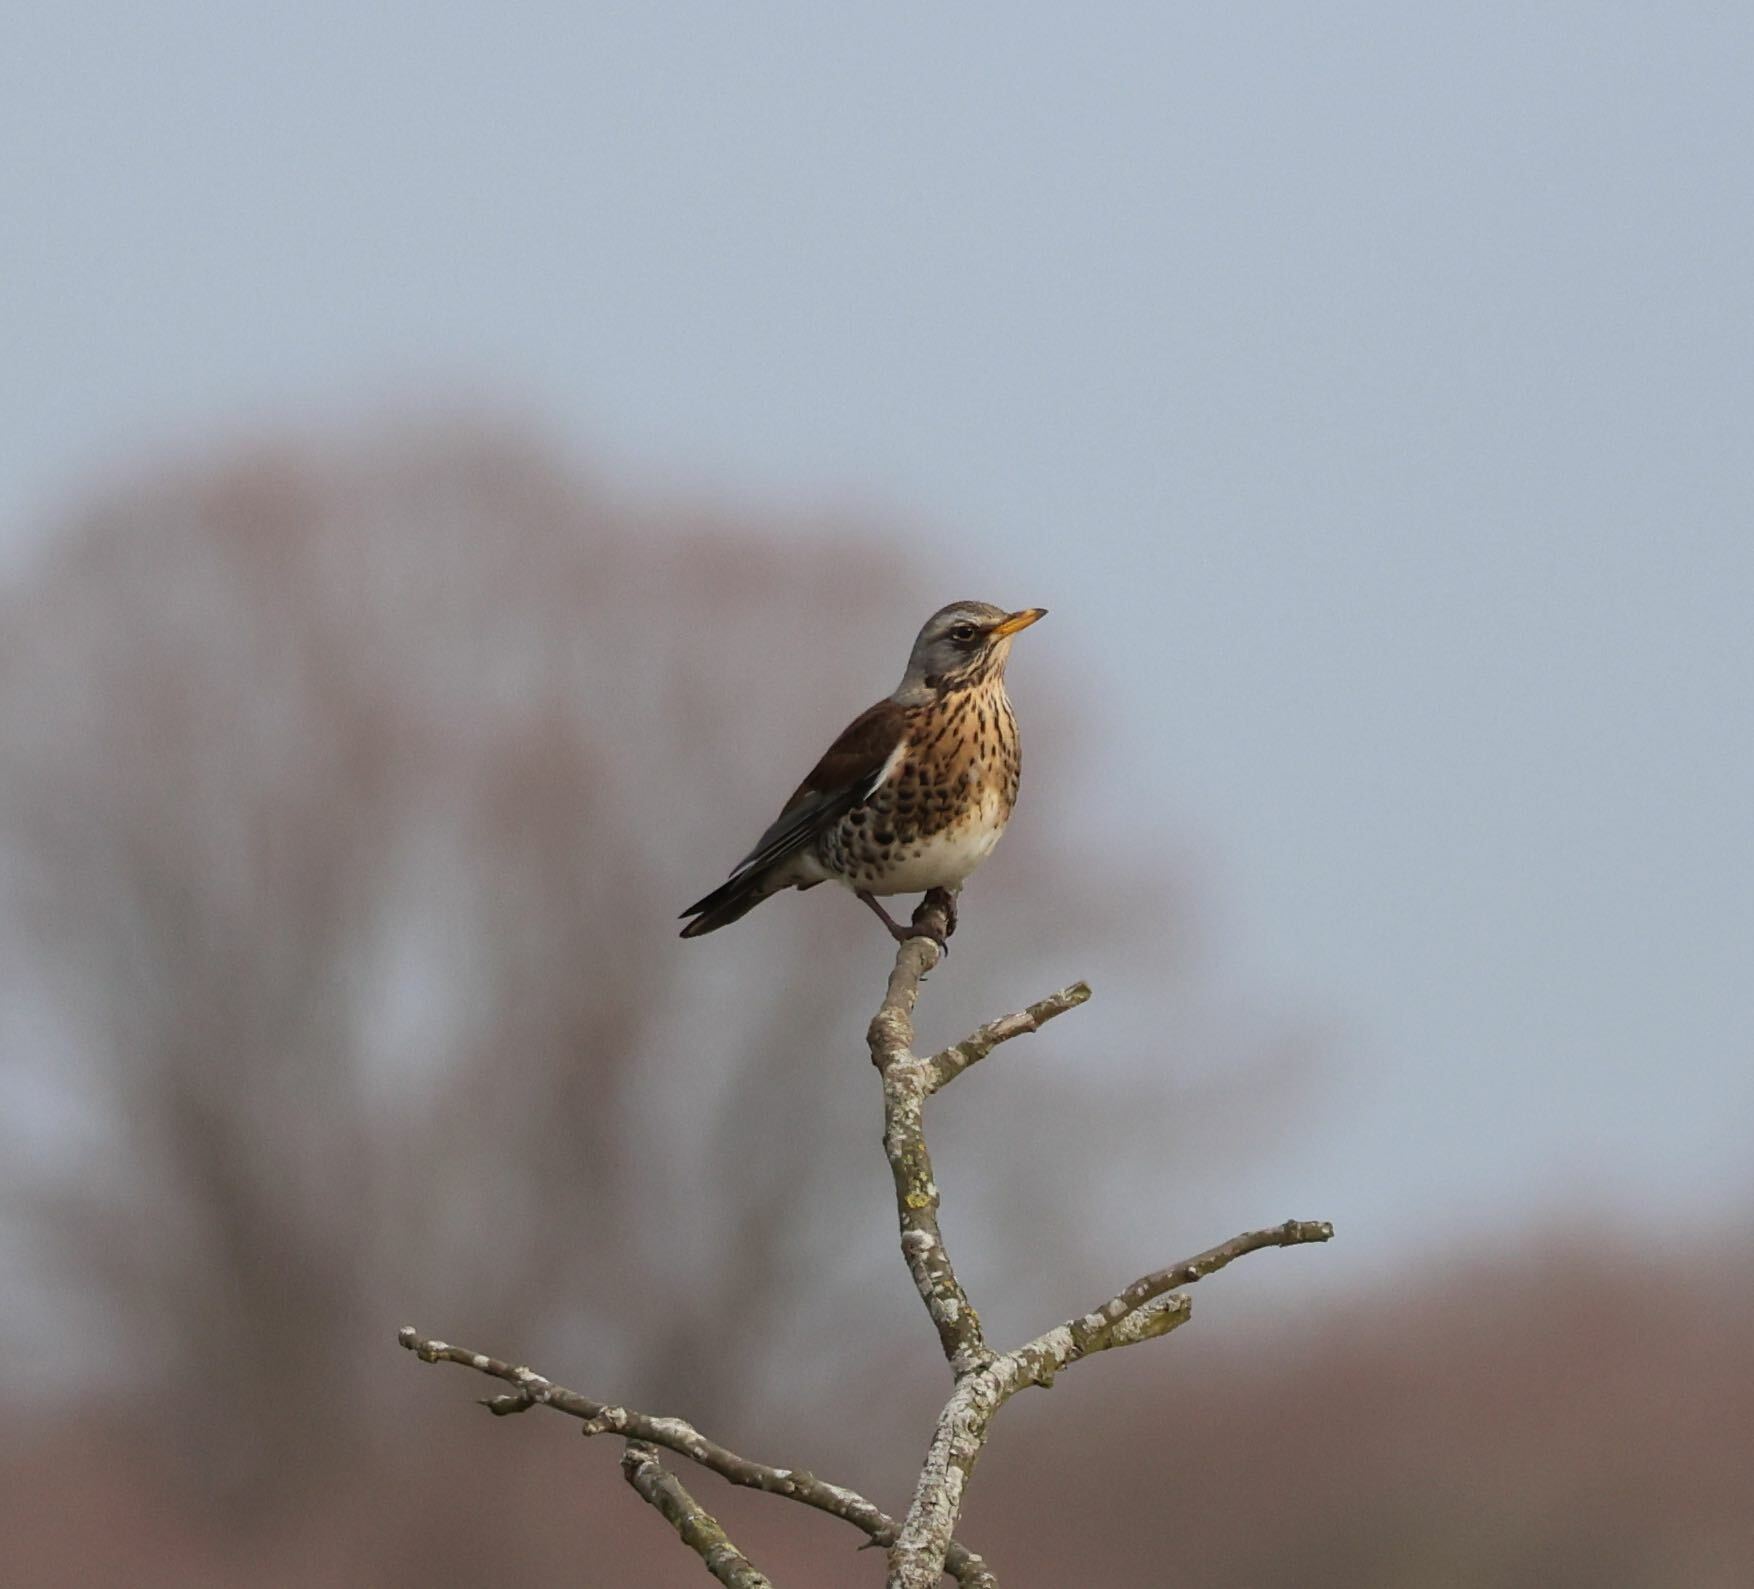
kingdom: Animalia
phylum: Chordata
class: Aves
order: Passeriformes
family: Turdidae
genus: Turdus
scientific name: Turdus pilaris
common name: Fieldfare
